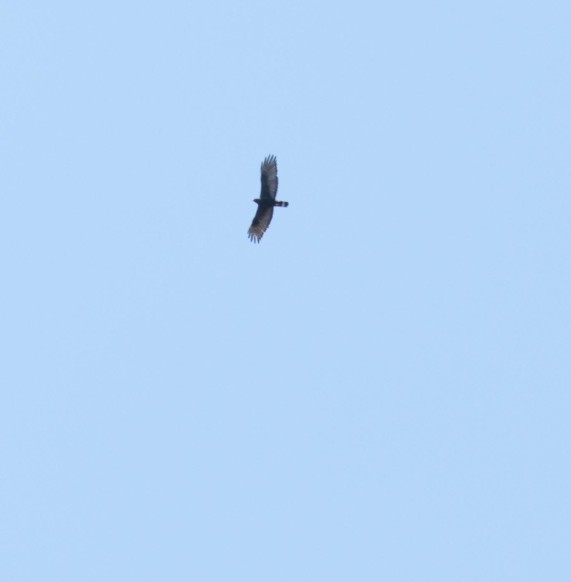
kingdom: Animalia
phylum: Chordata
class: Aves
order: Accipitriformes
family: Accipitridae
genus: Buteo
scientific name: Buteo albonotatus
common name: Zone-tailed hawk
